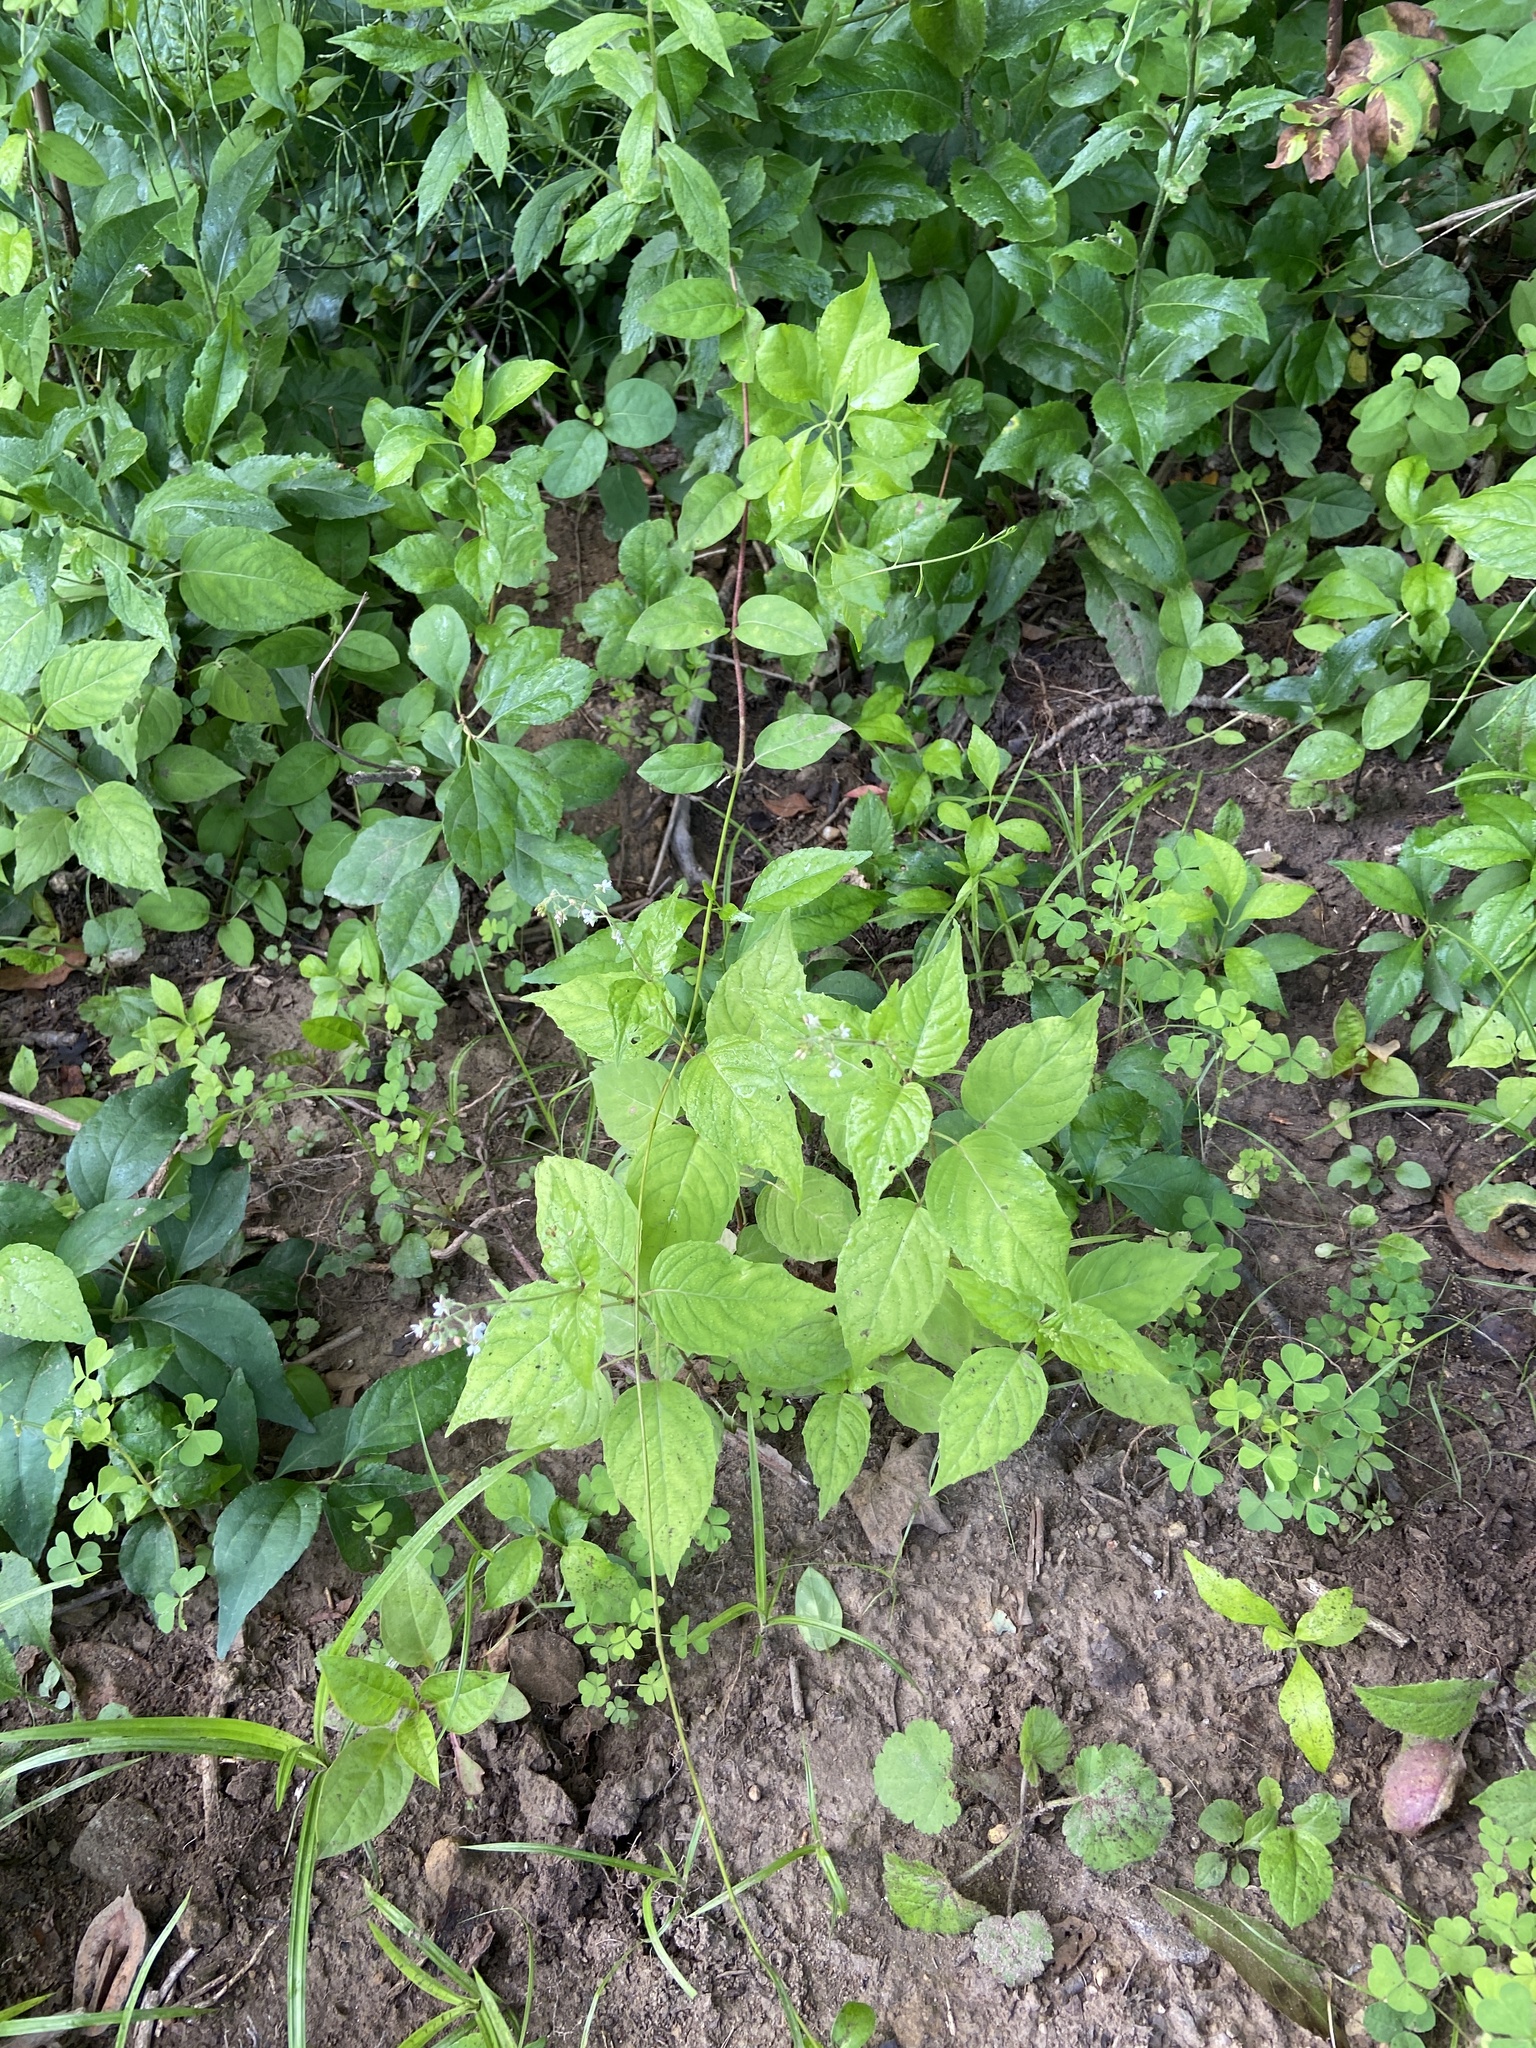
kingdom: Plantae
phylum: Tracheophyta
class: Magnoliopsida
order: Myrtales
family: Onagraceae
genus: Circaea
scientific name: Circaea canadensis
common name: Broad-leaved enchanter's nightshade
